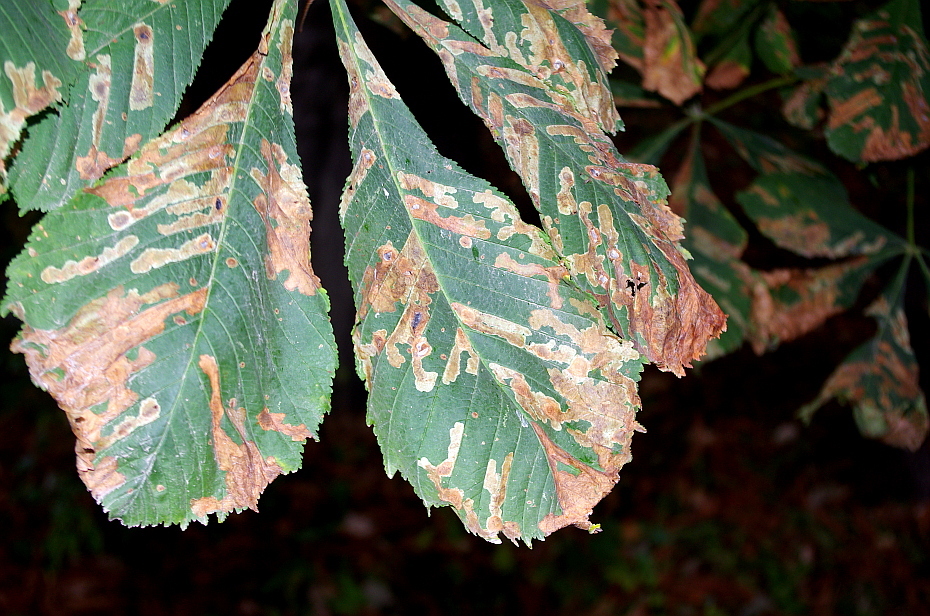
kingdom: Animalia
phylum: Arthropoda
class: Insecta
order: Lepidoptera
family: Gracillariidae
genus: Cameraria
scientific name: Cameraria ohridella
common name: Horse-chestnut leaf-miner
